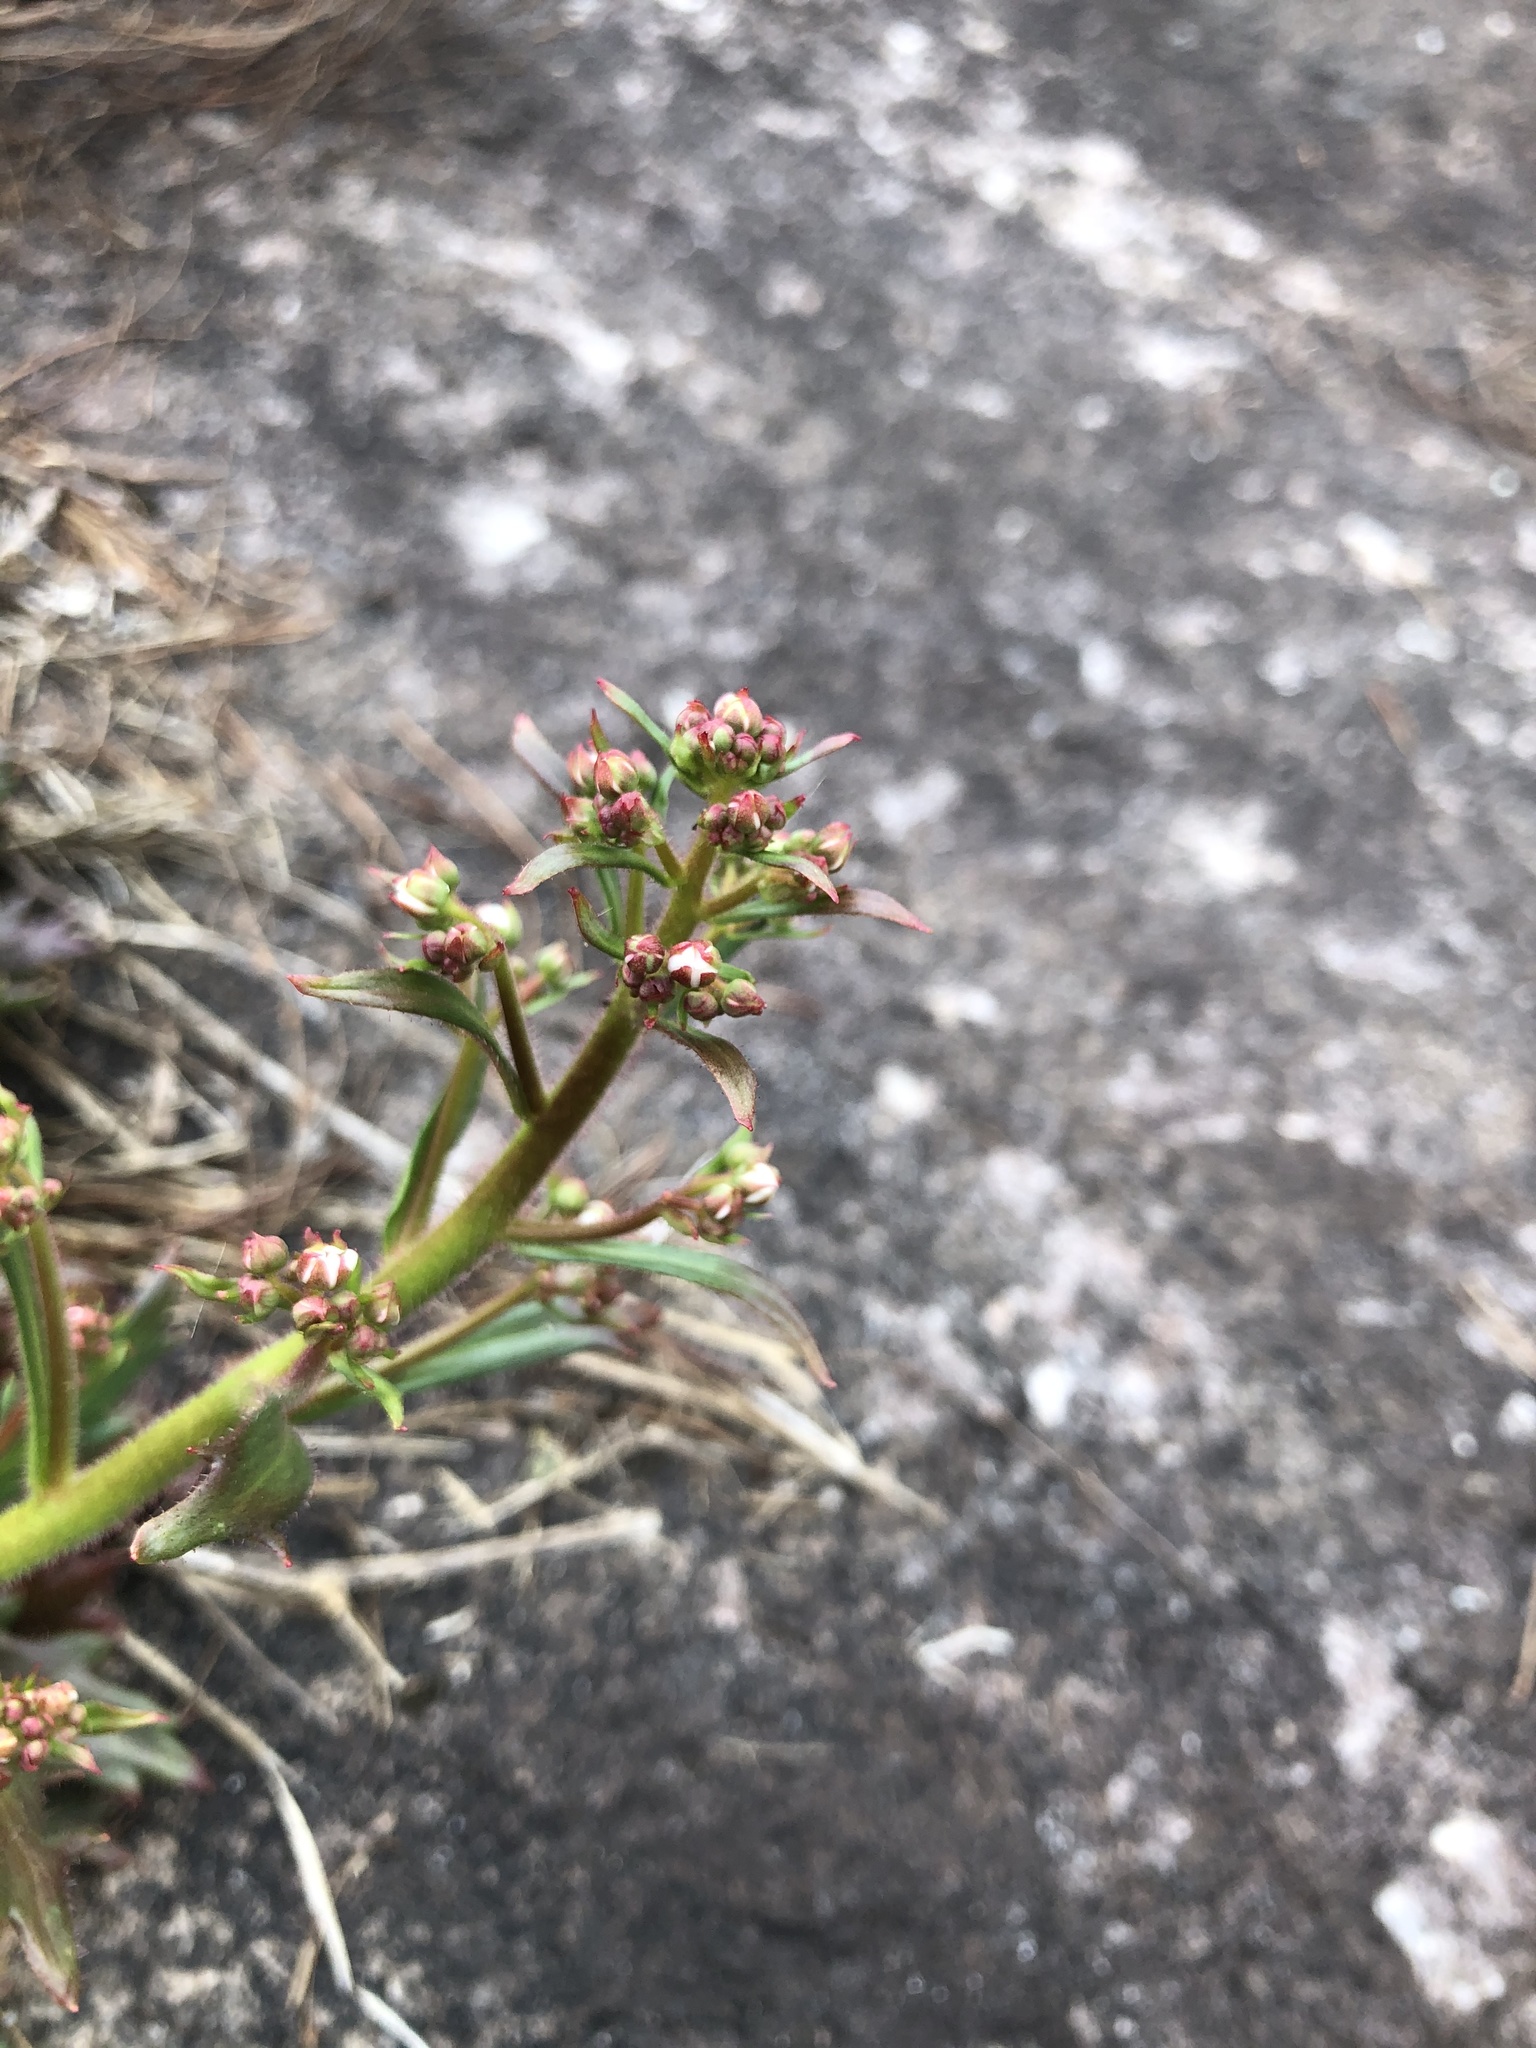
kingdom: Plantae
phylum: Tracheophyta
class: Magnoliopsida
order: Saxifragales
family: Saxifragaceae
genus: Micranthes
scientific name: Micranthes petiolaris
